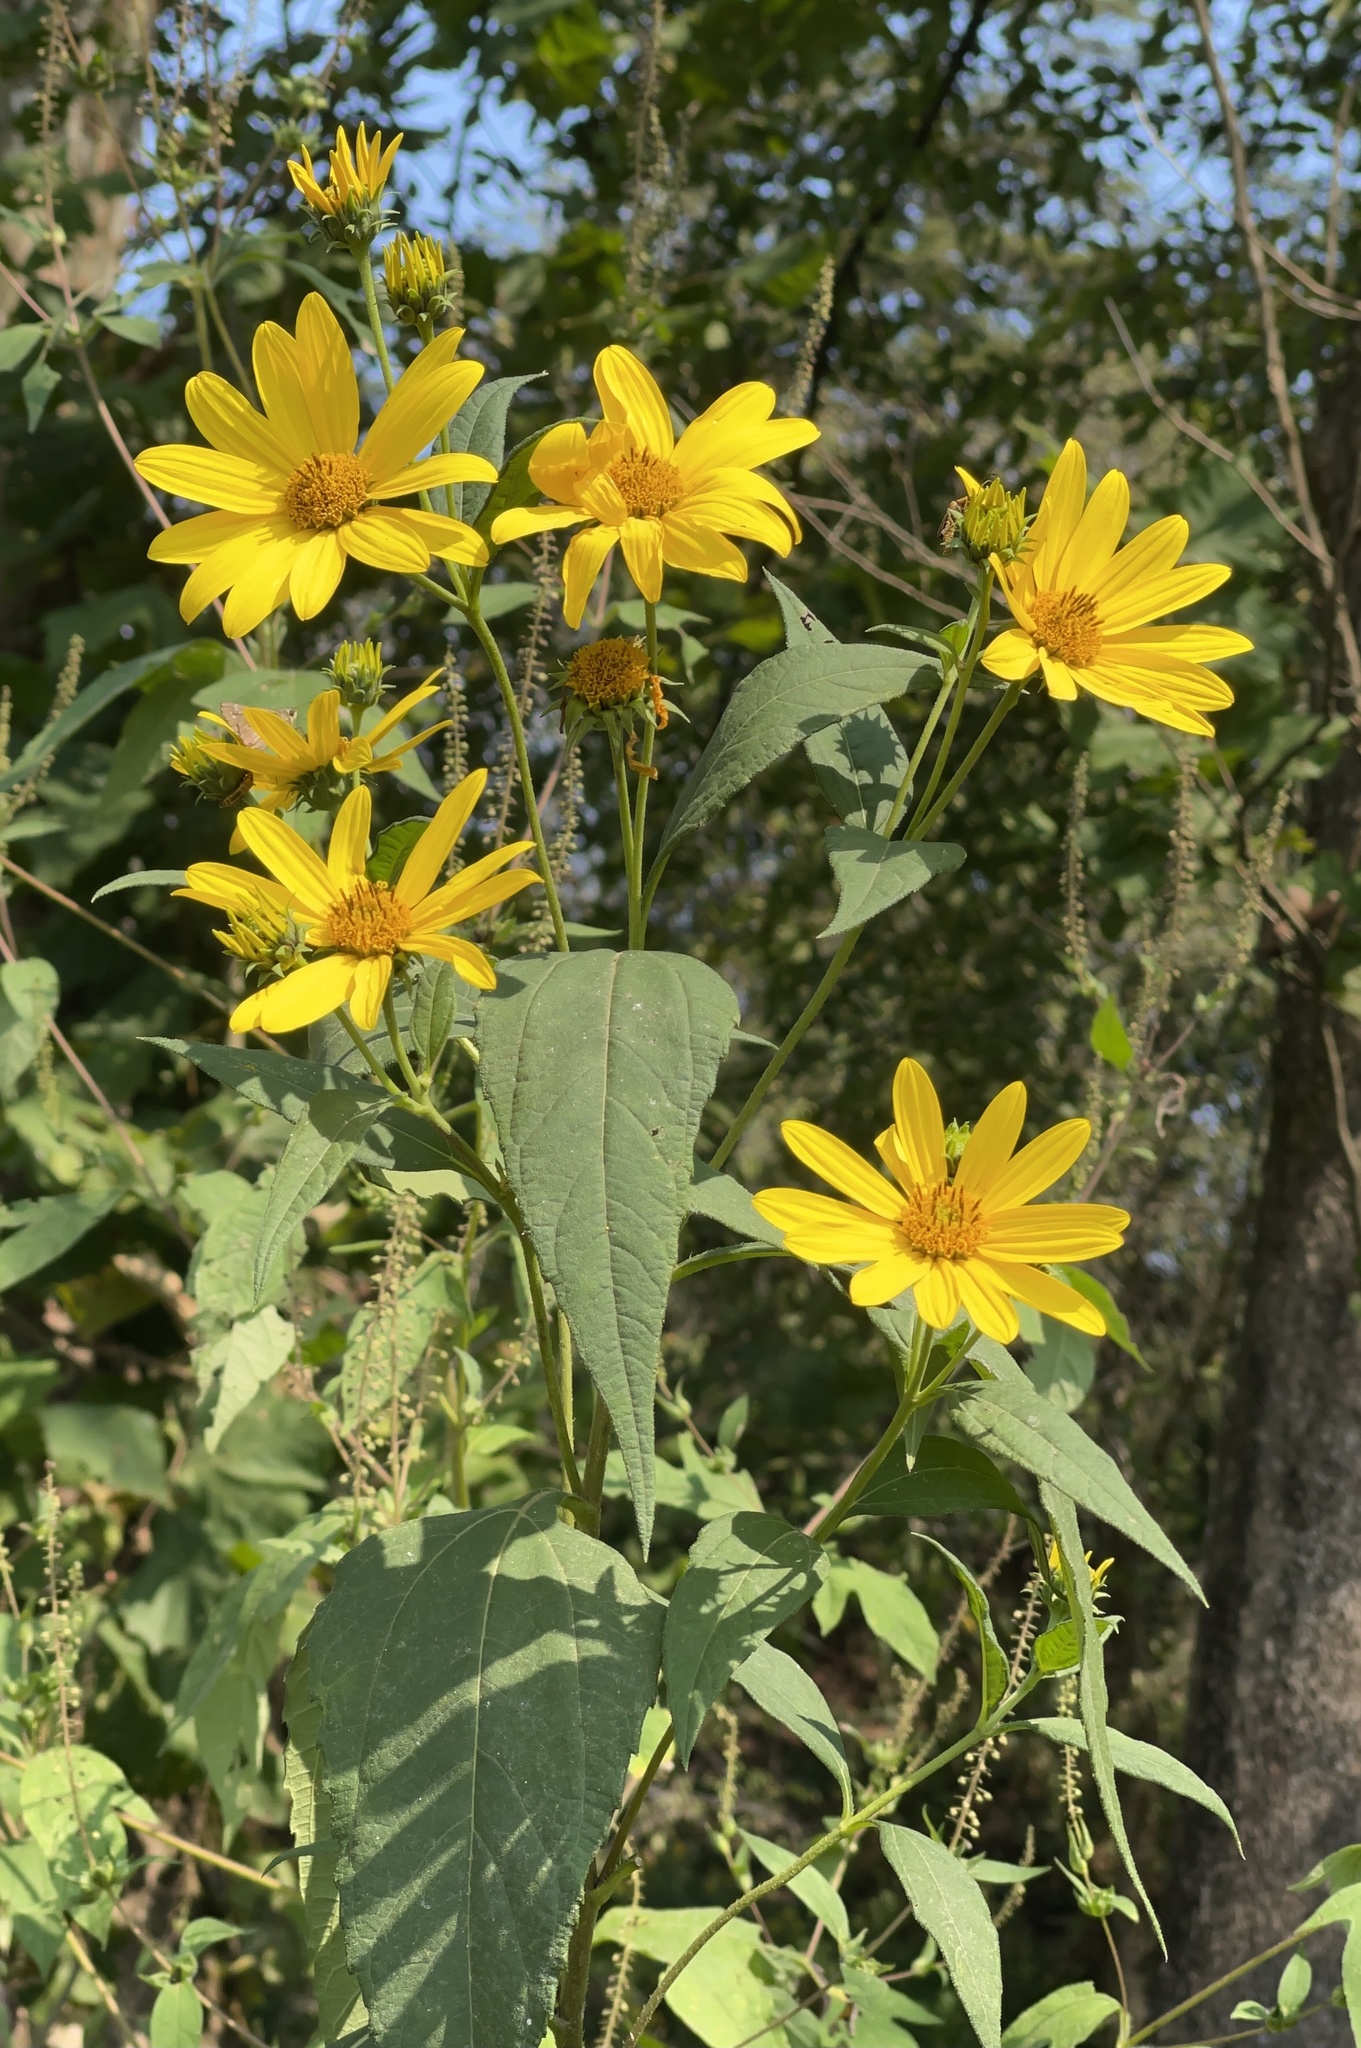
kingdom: Plantae
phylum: Tracheophyta
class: Magnoliopsida
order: Asterales
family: Asteraceae
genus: Helianthus
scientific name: Helianthus tuberosus
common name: Jerusalem artichoke
